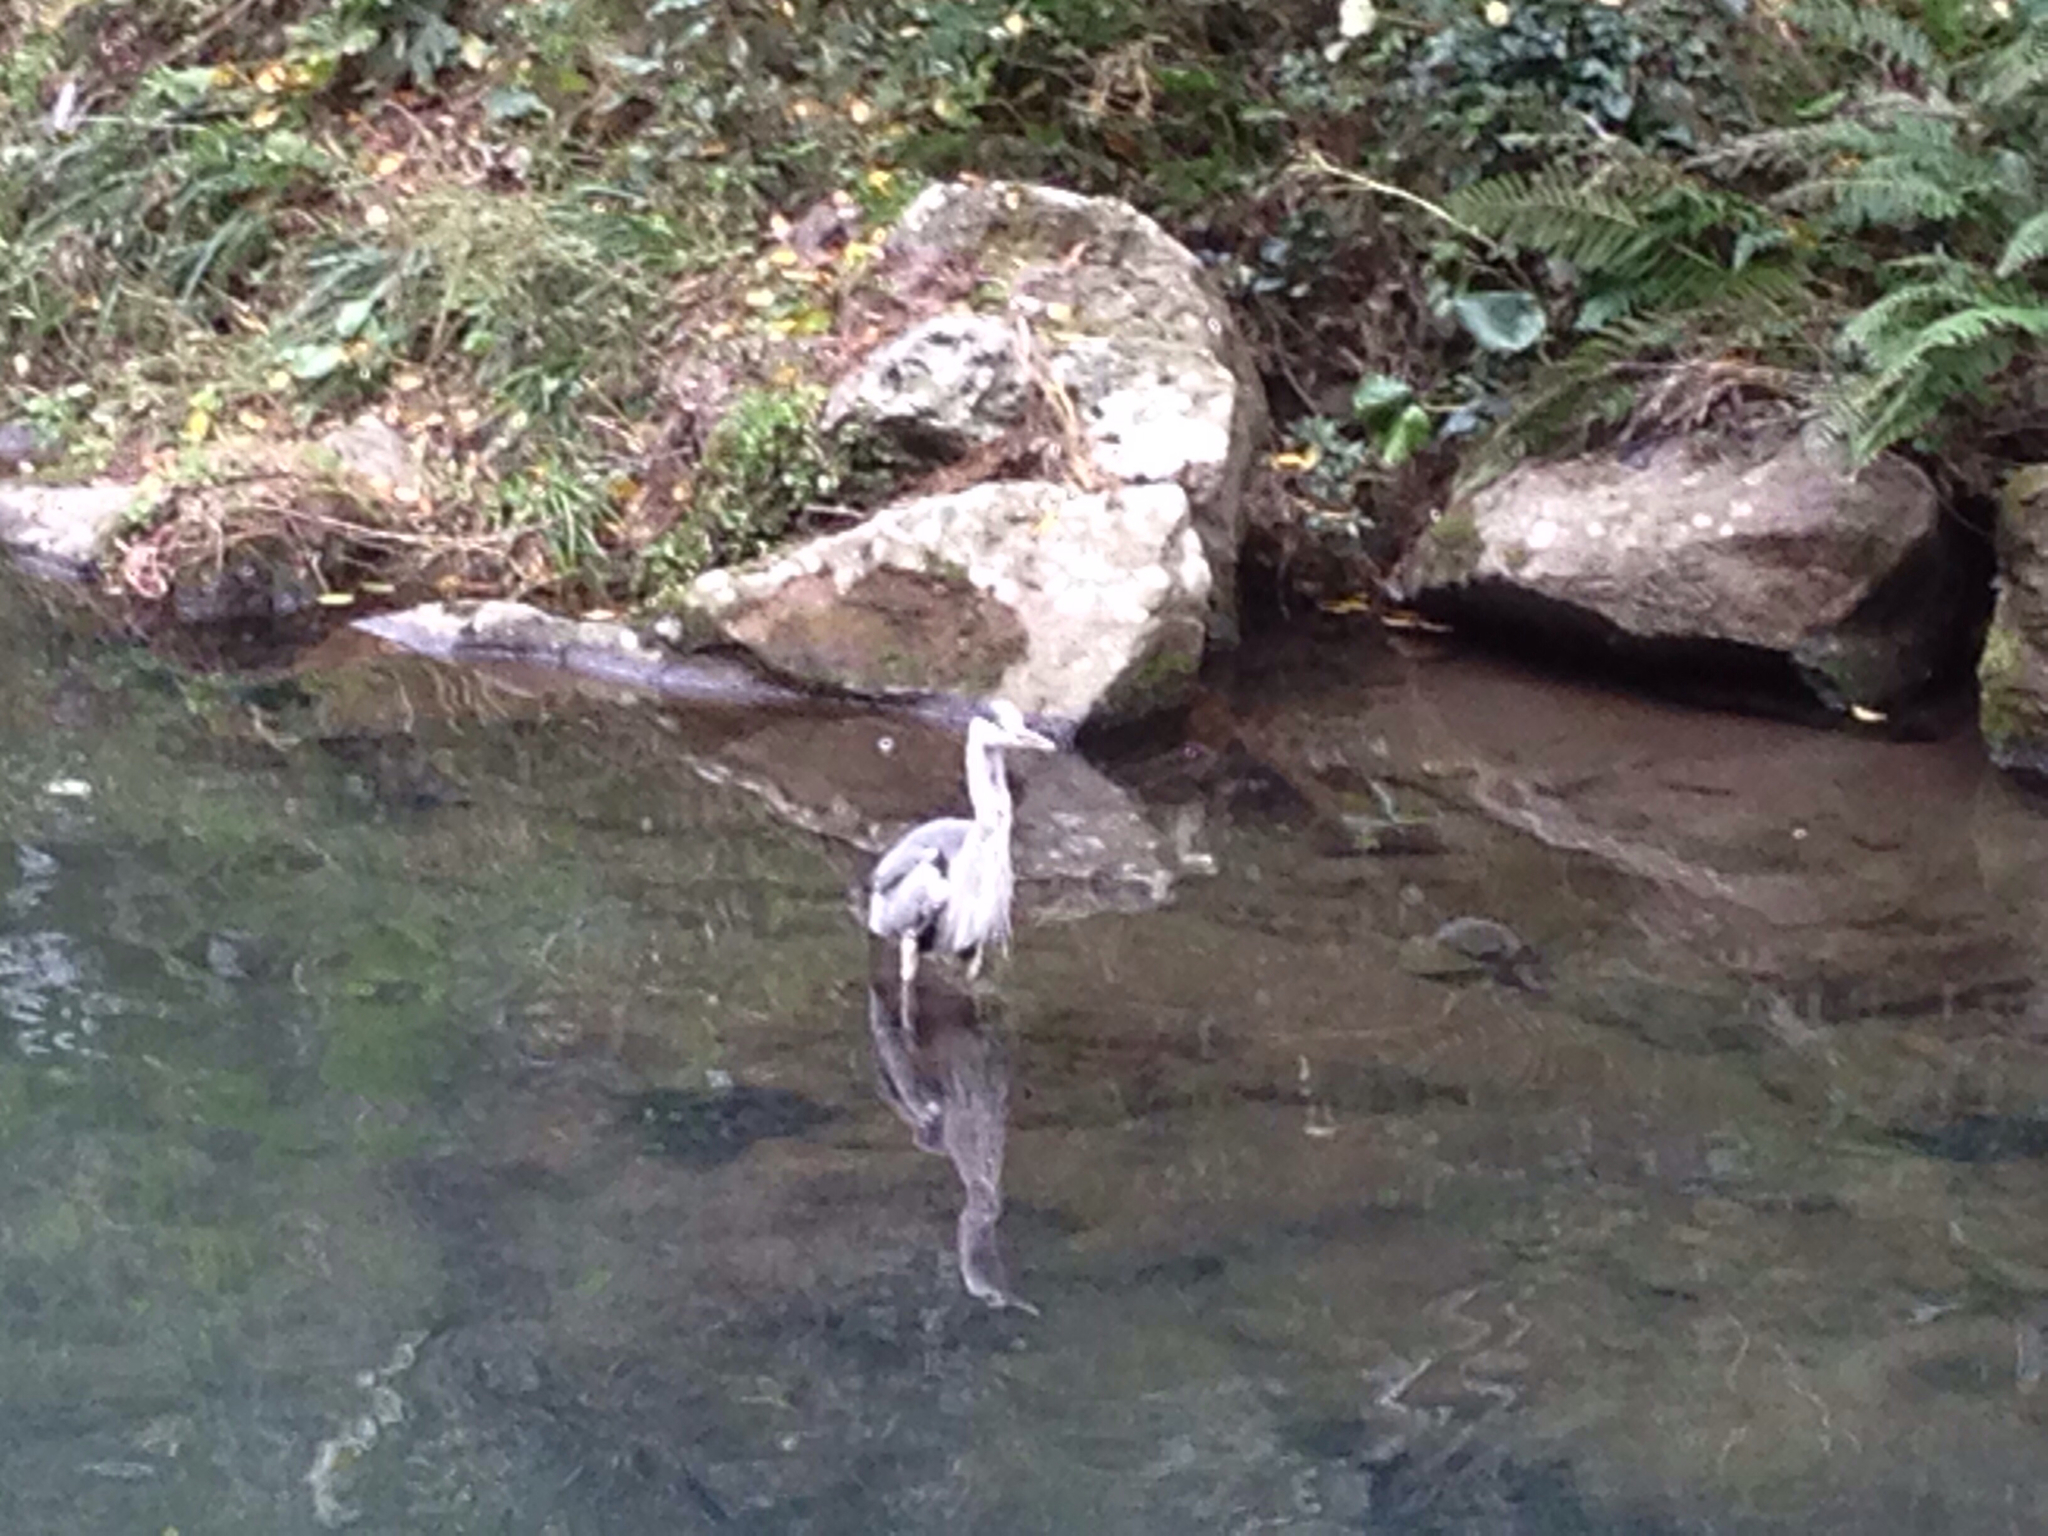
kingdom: Animalia
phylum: Chordata
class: Aves
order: Pelecaniformes
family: Ardeidae
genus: Ardea
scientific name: Ardea cinerea
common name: Grey heron
